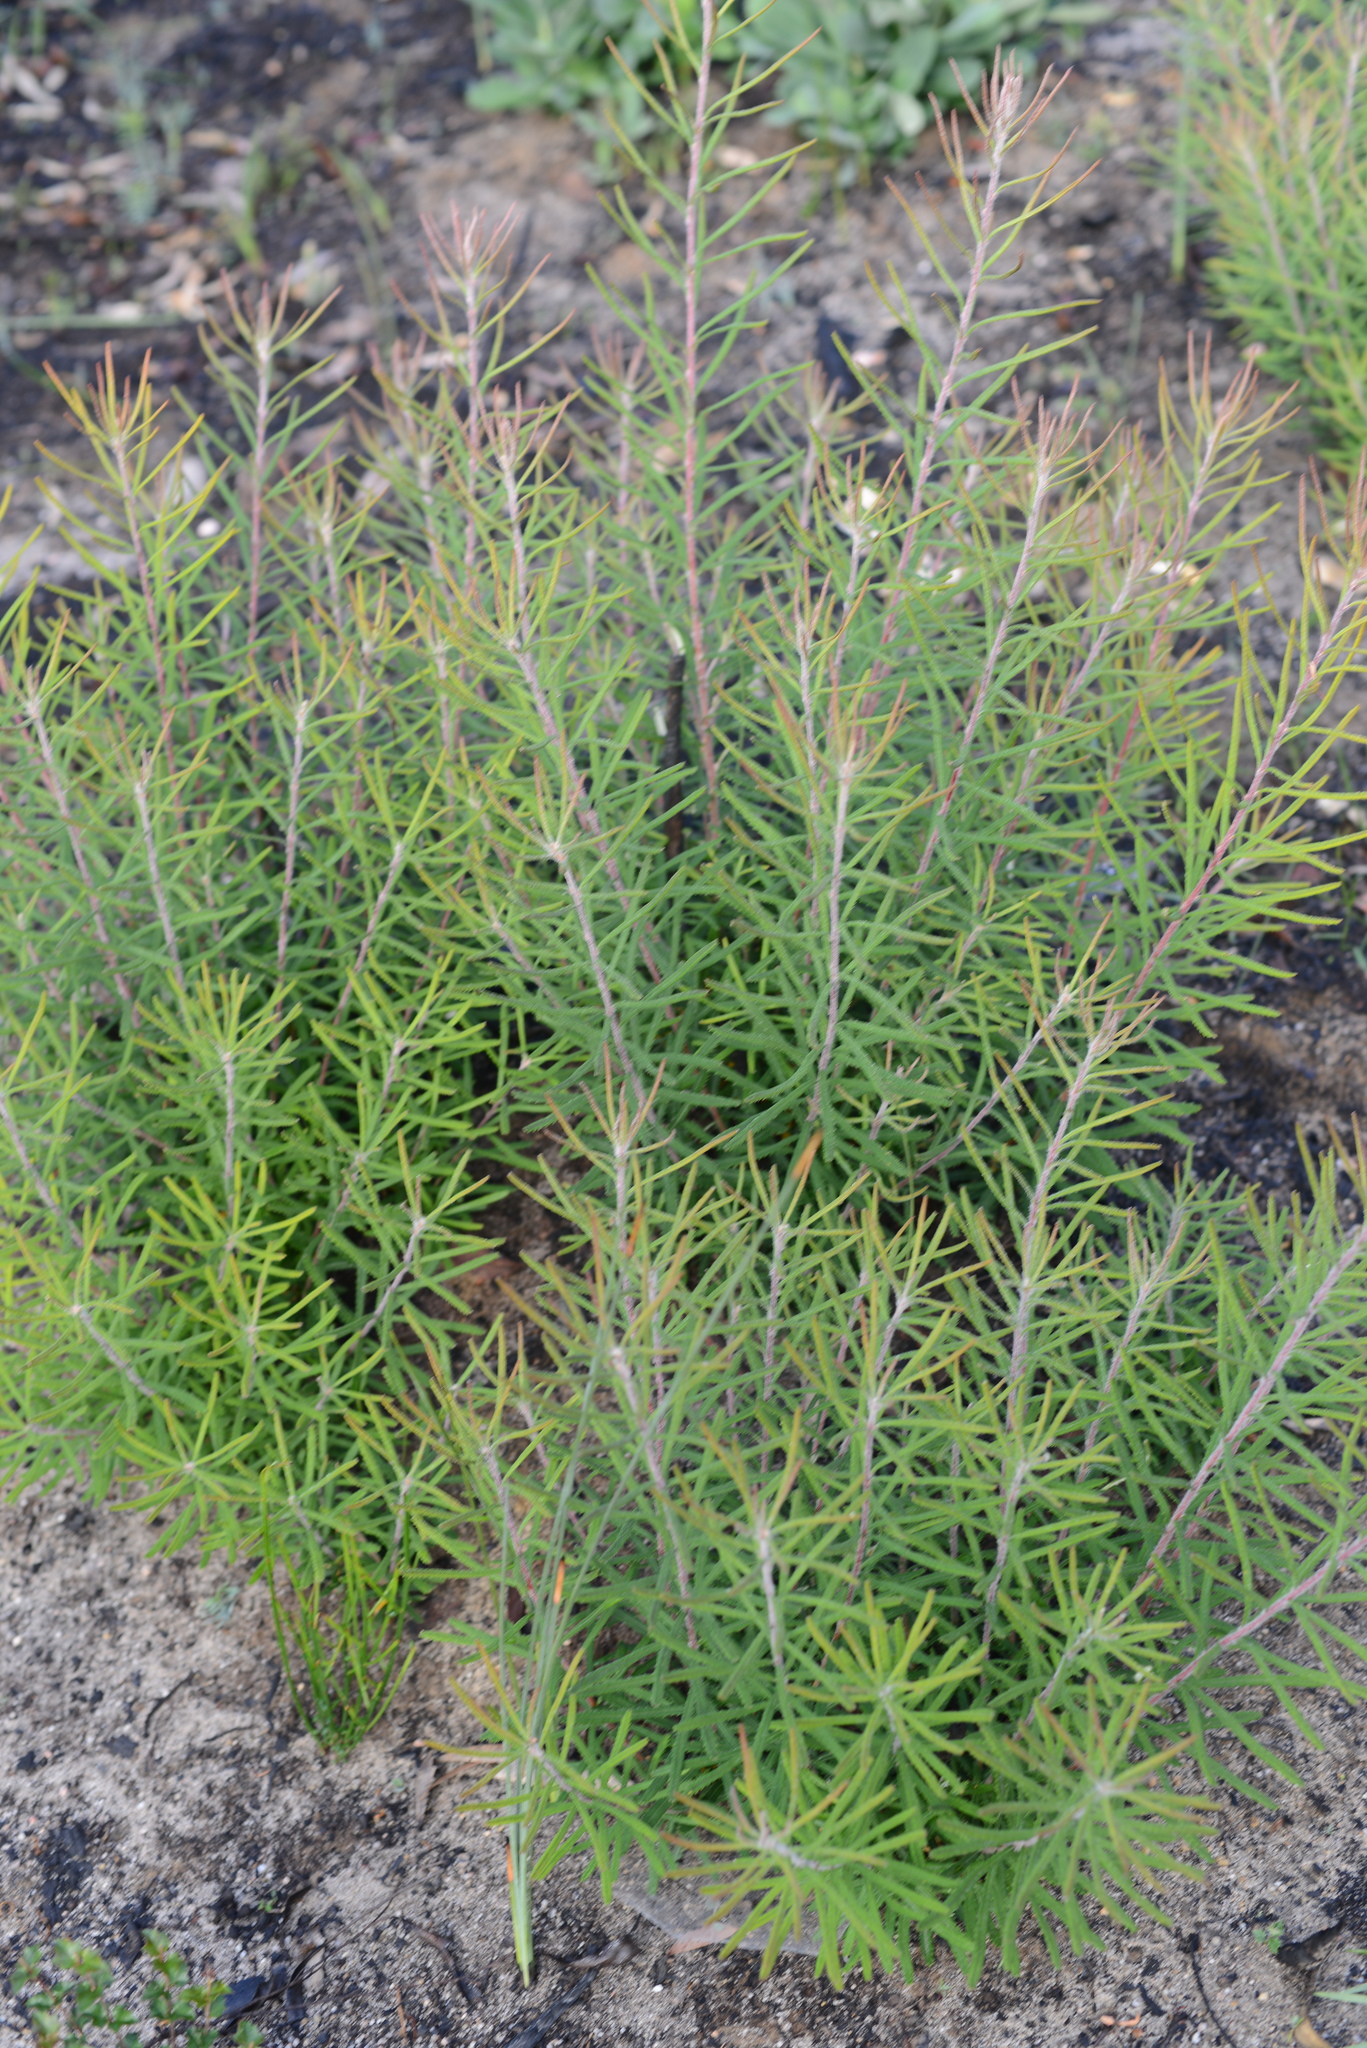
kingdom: Plantae
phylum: Tracheophyta
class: Magnoliopsida
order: Proteales
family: Proteaceae
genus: Banksia
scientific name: Banksia spinulosa
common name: Hairpin banksia
